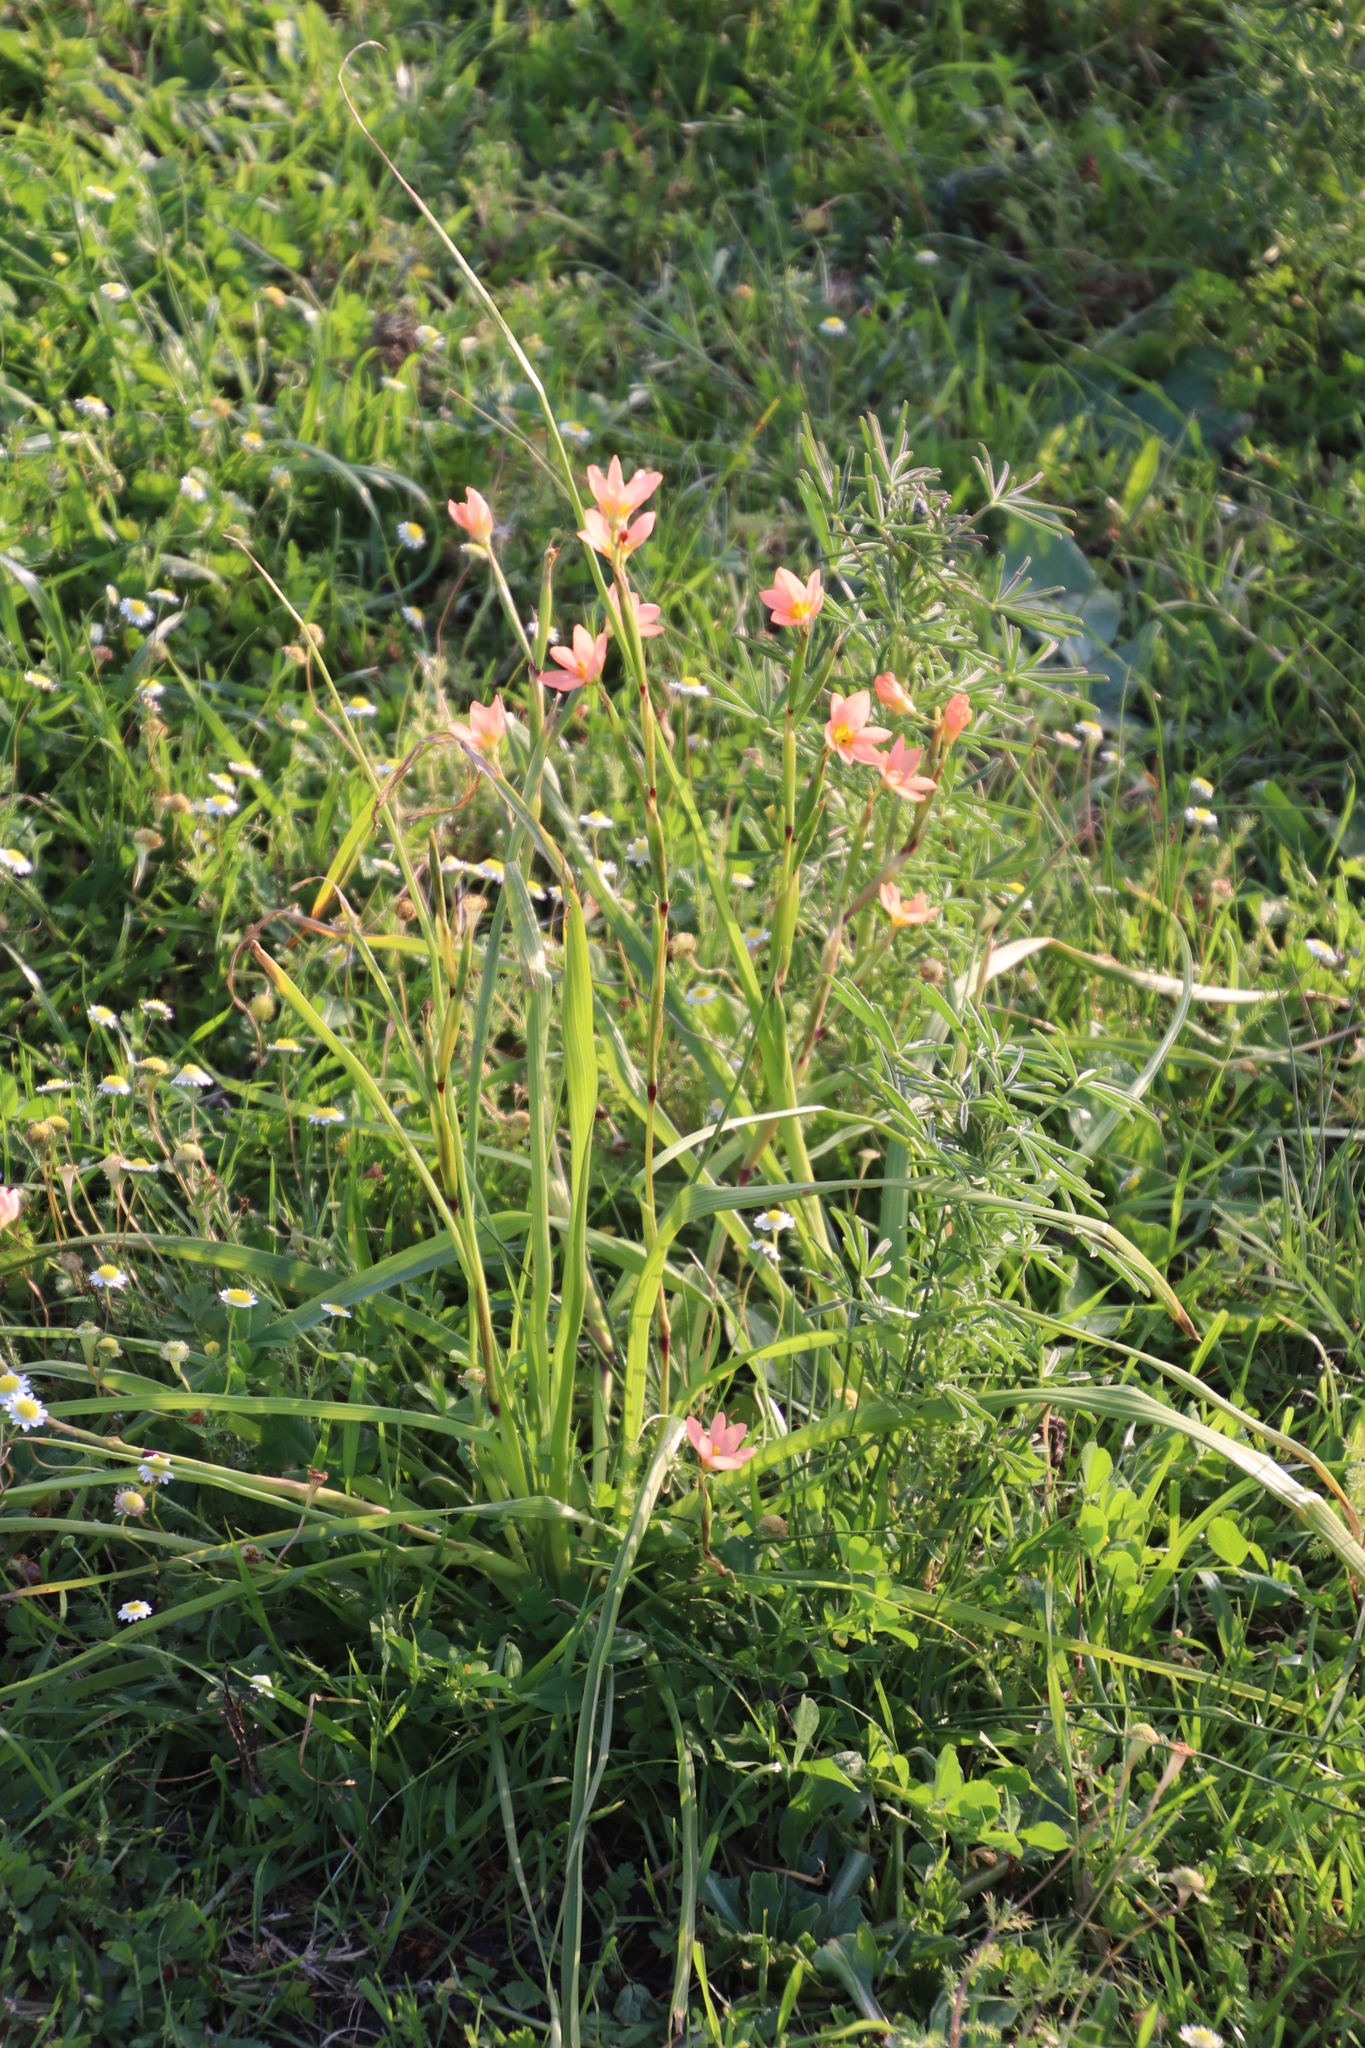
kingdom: Plantae
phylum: Tracheophyta
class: Liliopsida
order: Asparagales
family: Iridaceae
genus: Moraea
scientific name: Moraea miniata
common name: Two-leaf cape-tulip
